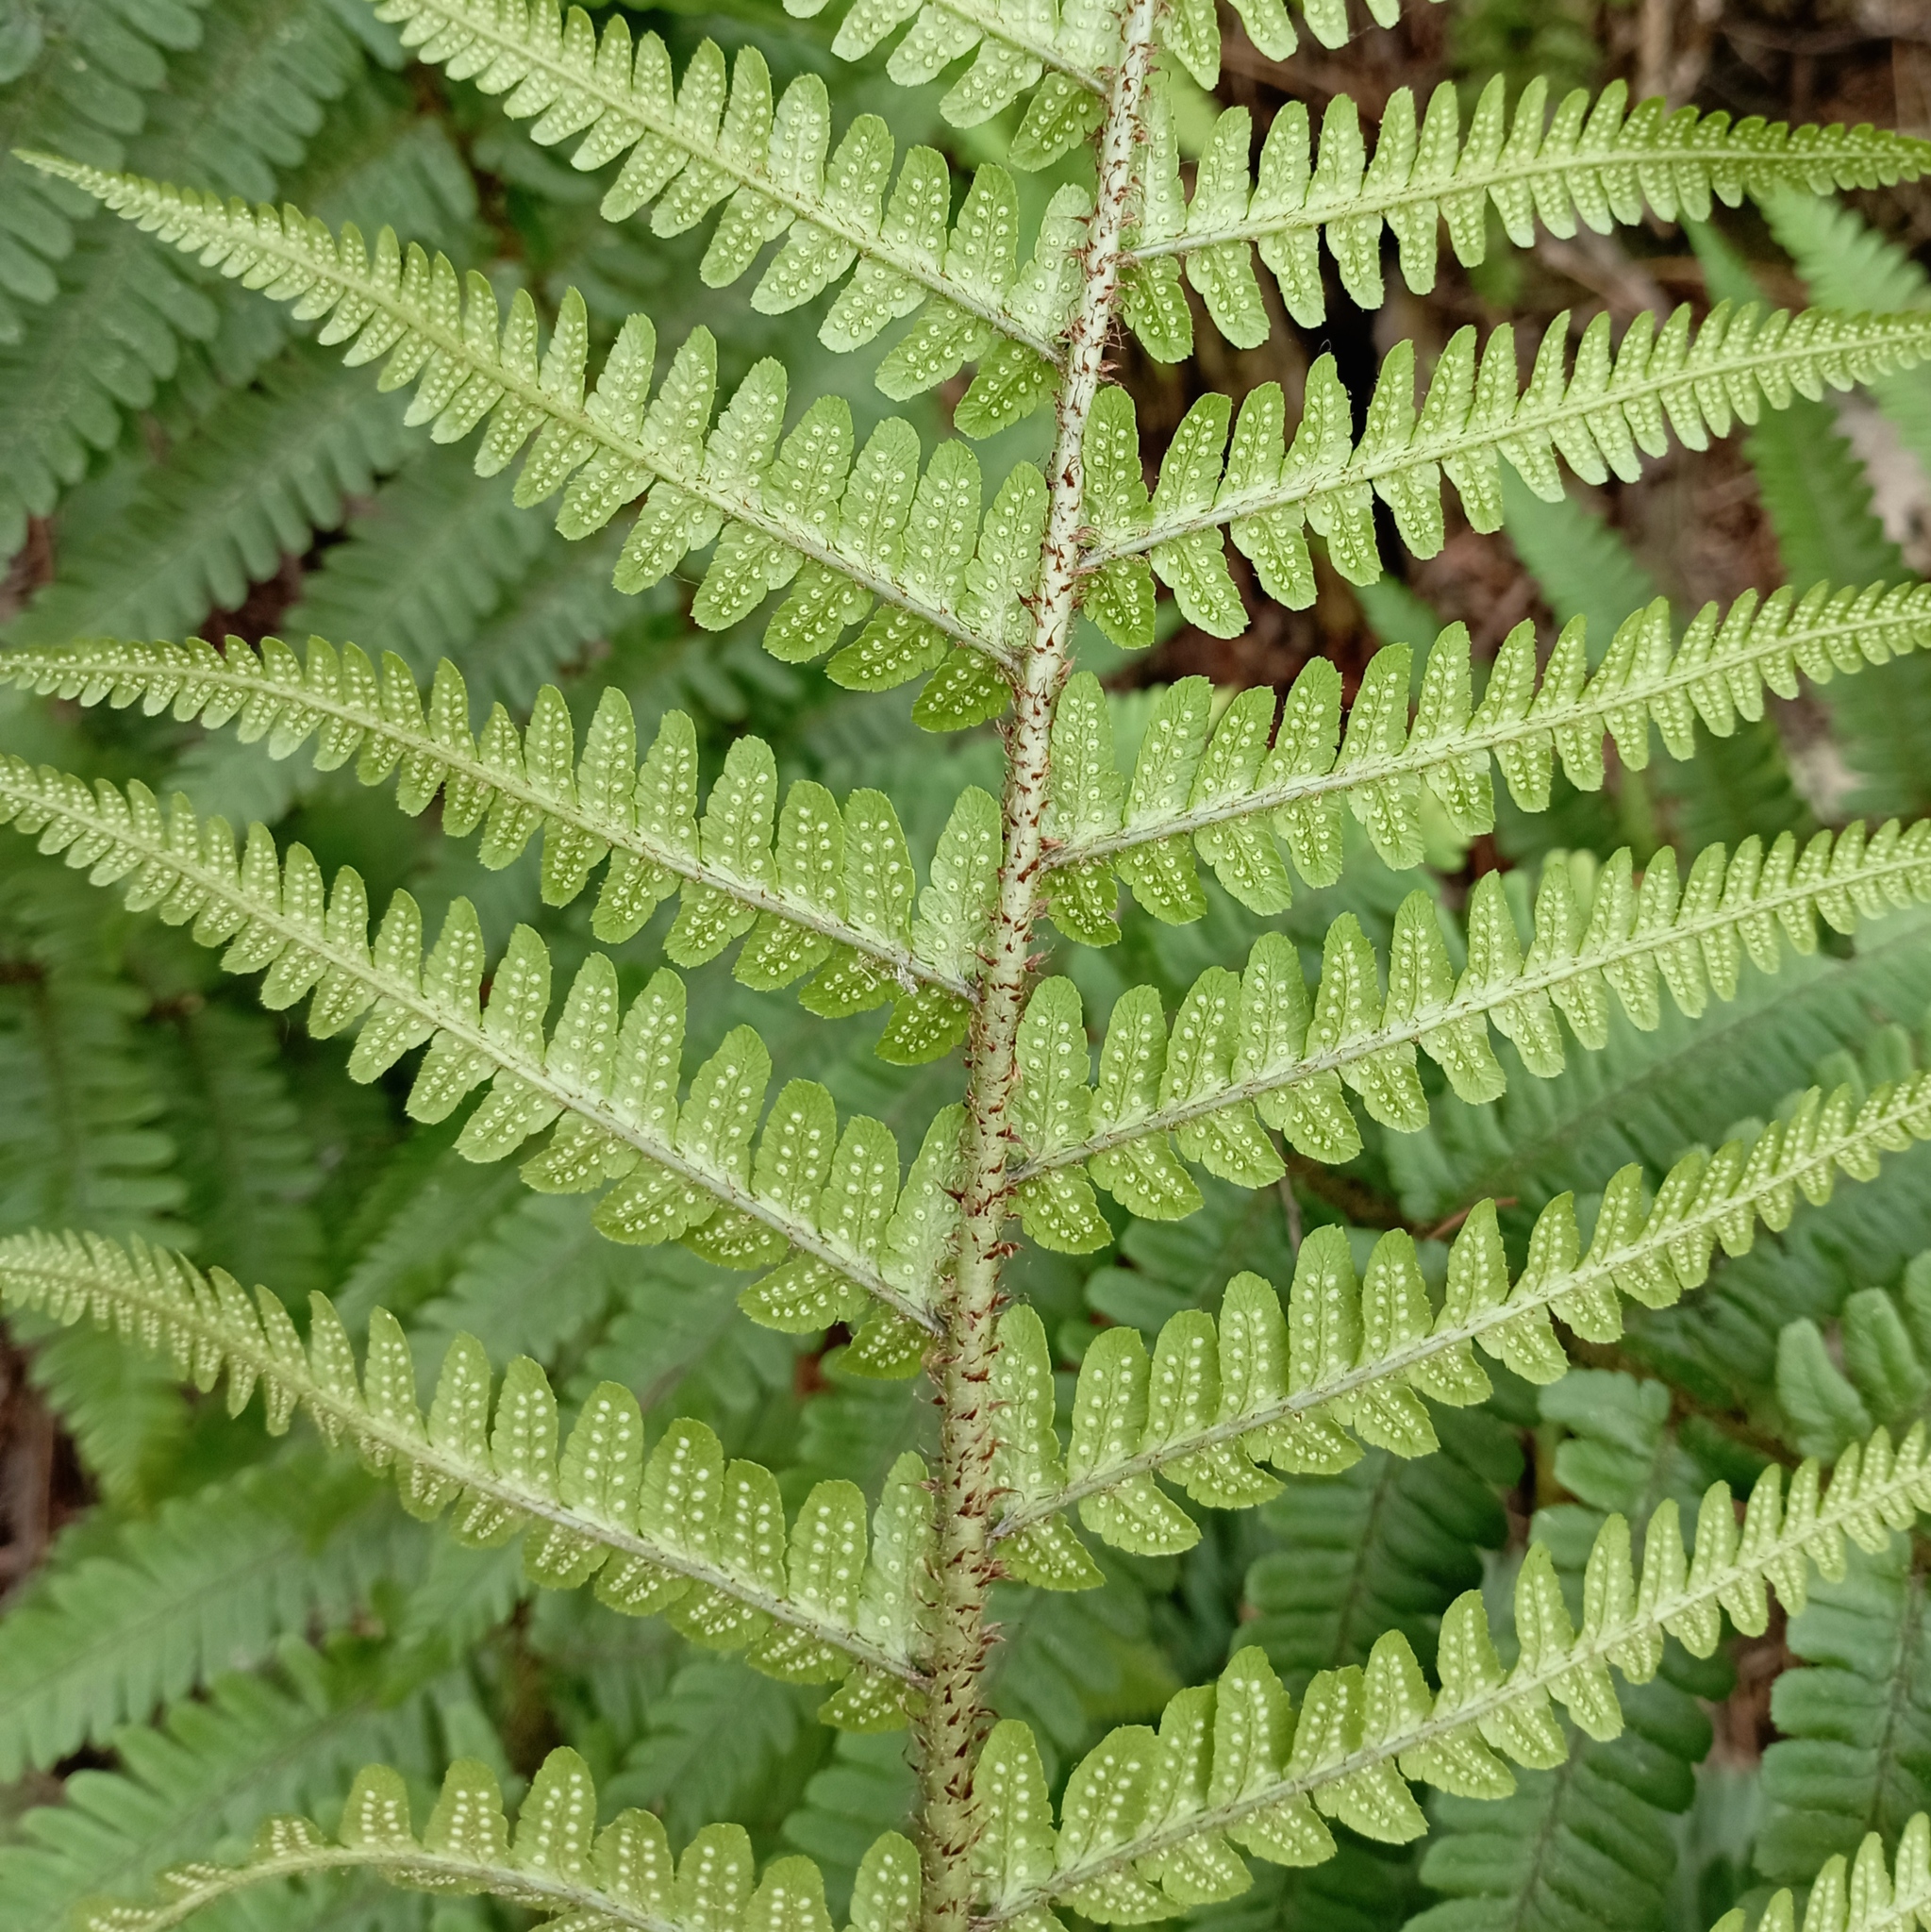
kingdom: Plantae
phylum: Tracheophyta
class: Polypodiopsida
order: Polypodiales
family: Dryopteridaceae
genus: Dryopteris
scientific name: Dryopteris wallichiana
